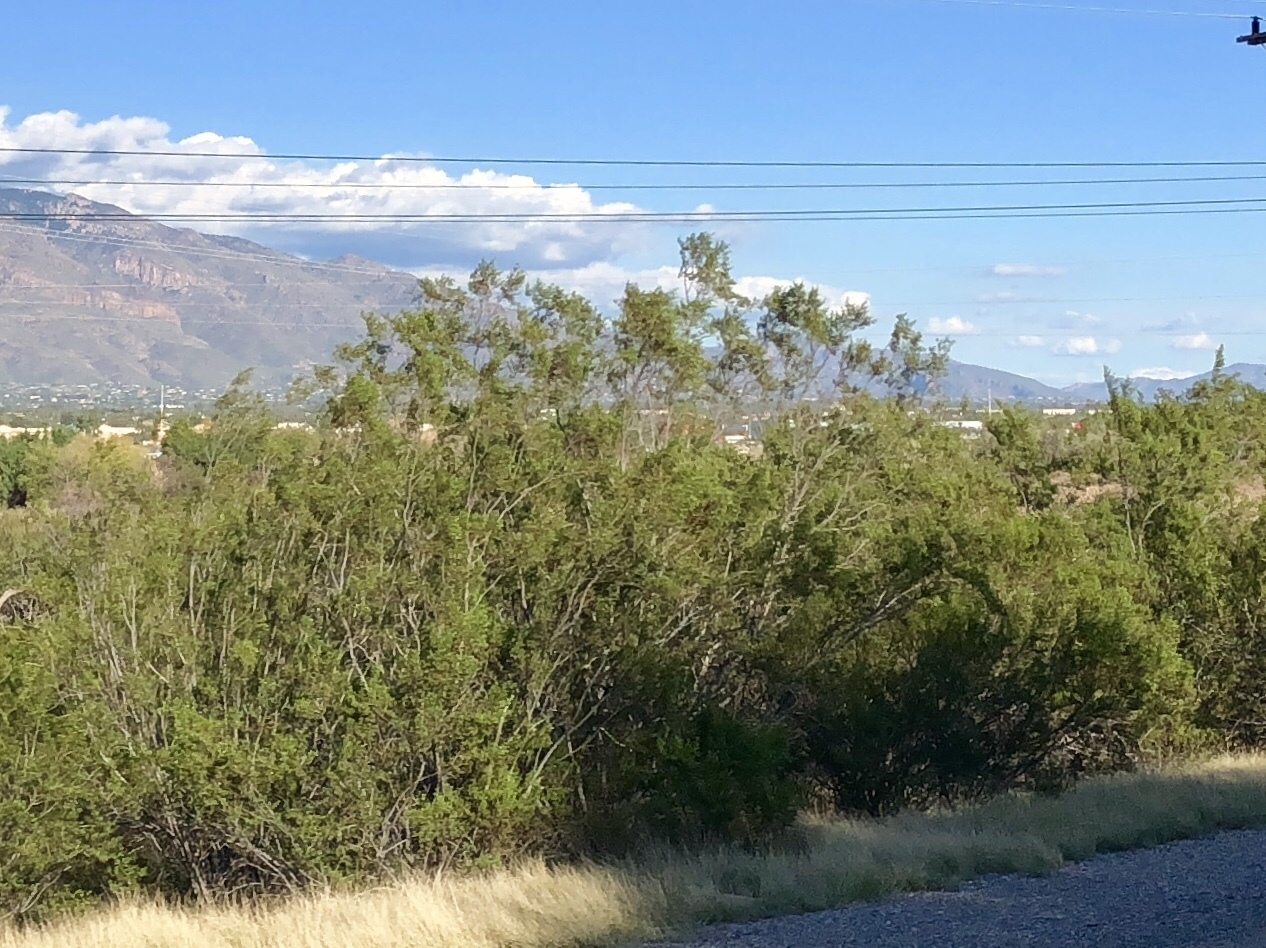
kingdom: Plantae
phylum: Tracheophyta
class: Magnoliopsida
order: Zygophyllales
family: Zygophyllaceae
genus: Larrea
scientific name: Larrea tridentata
